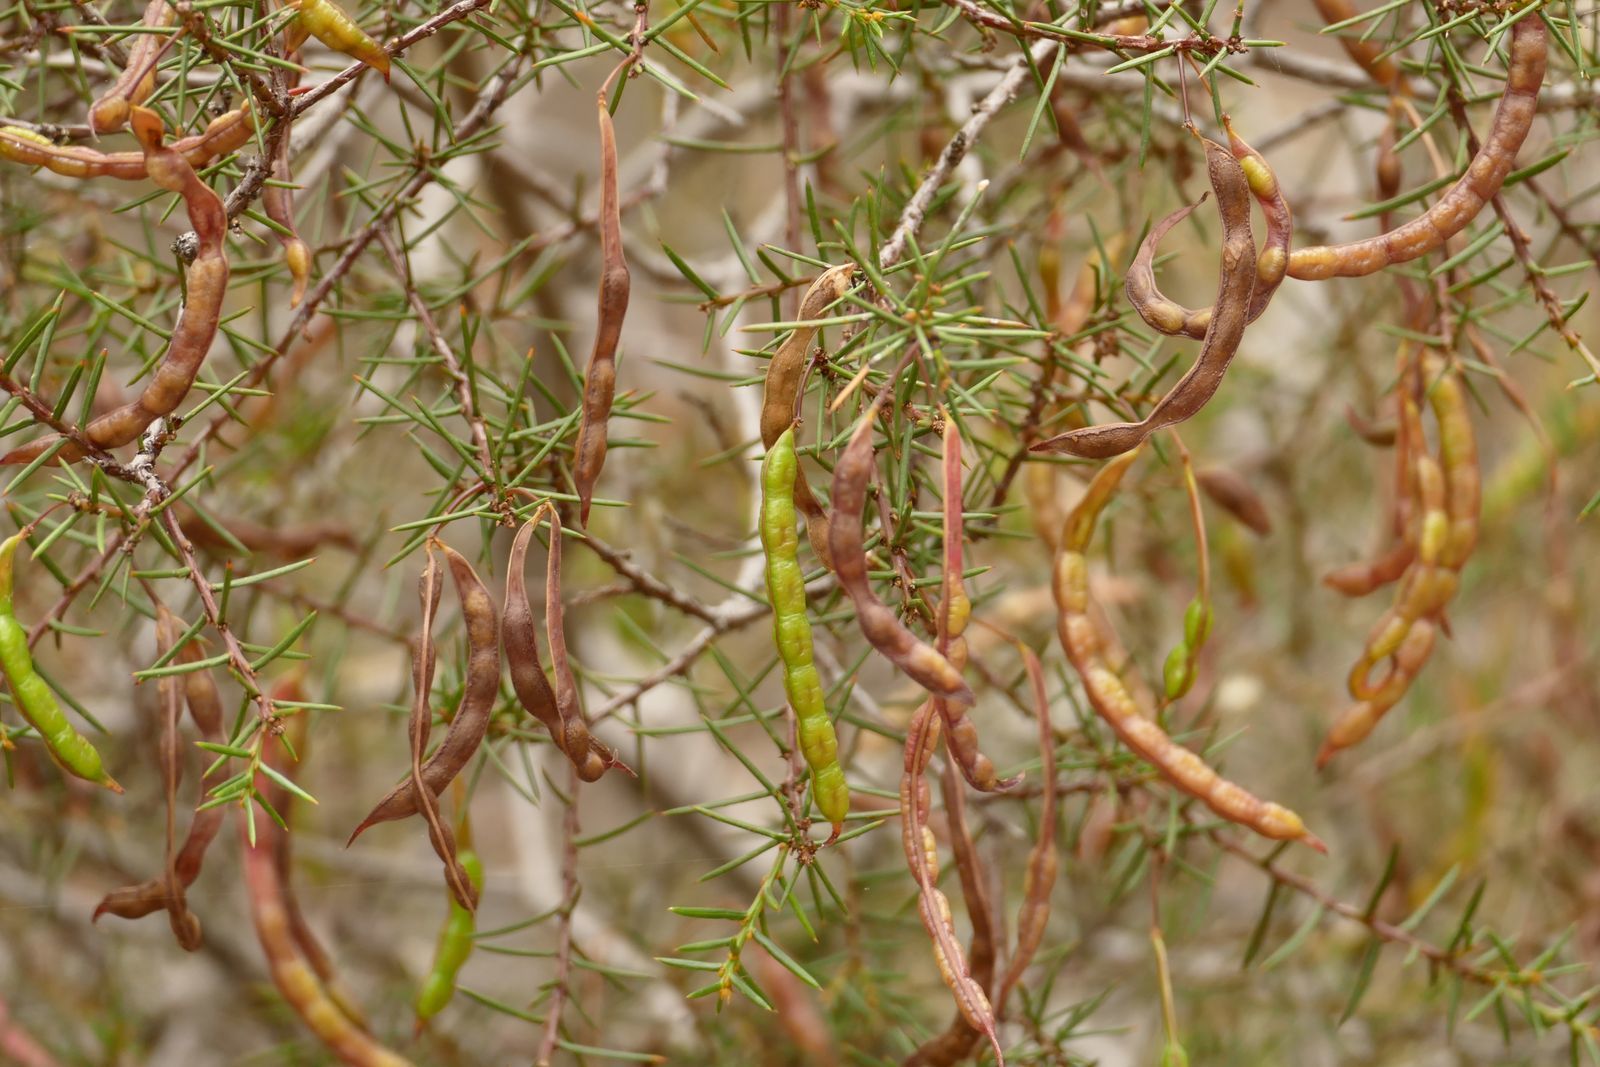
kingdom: Plantae
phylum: Tracheophyta
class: Magnoliopsida
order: Fabales
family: Fabaceae
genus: Acacia
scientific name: Acacia genistifolia
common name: Early wattle
